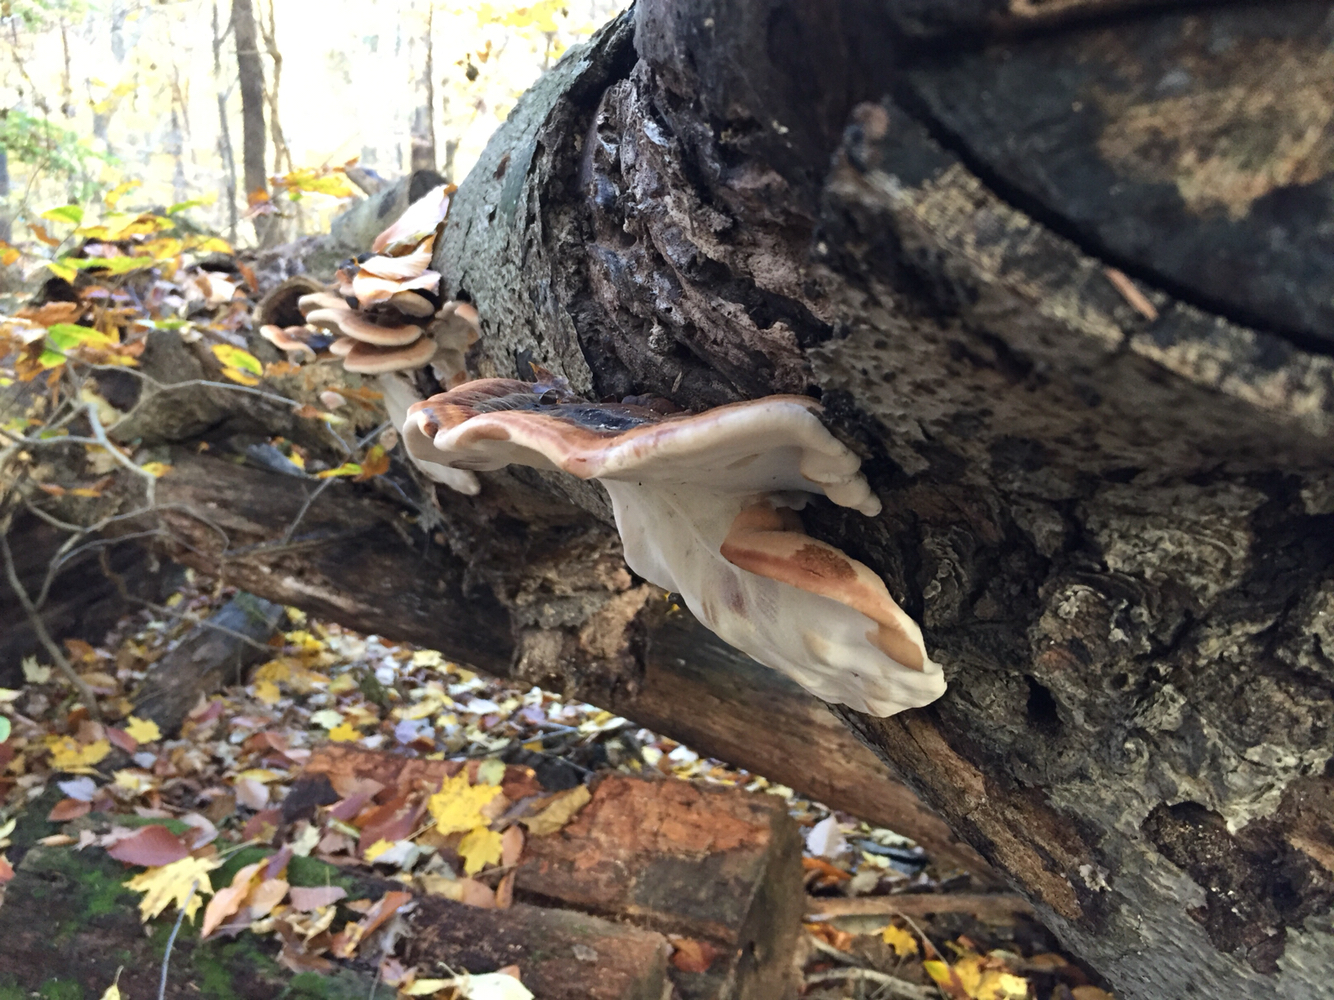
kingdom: Fungi
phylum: Basidiomycota
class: Agaricomycetes
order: Polyporales
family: Ischnodermataceae
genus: Ischnoderma
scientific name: Ischnoderma resinosum
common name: Resinous polypore
